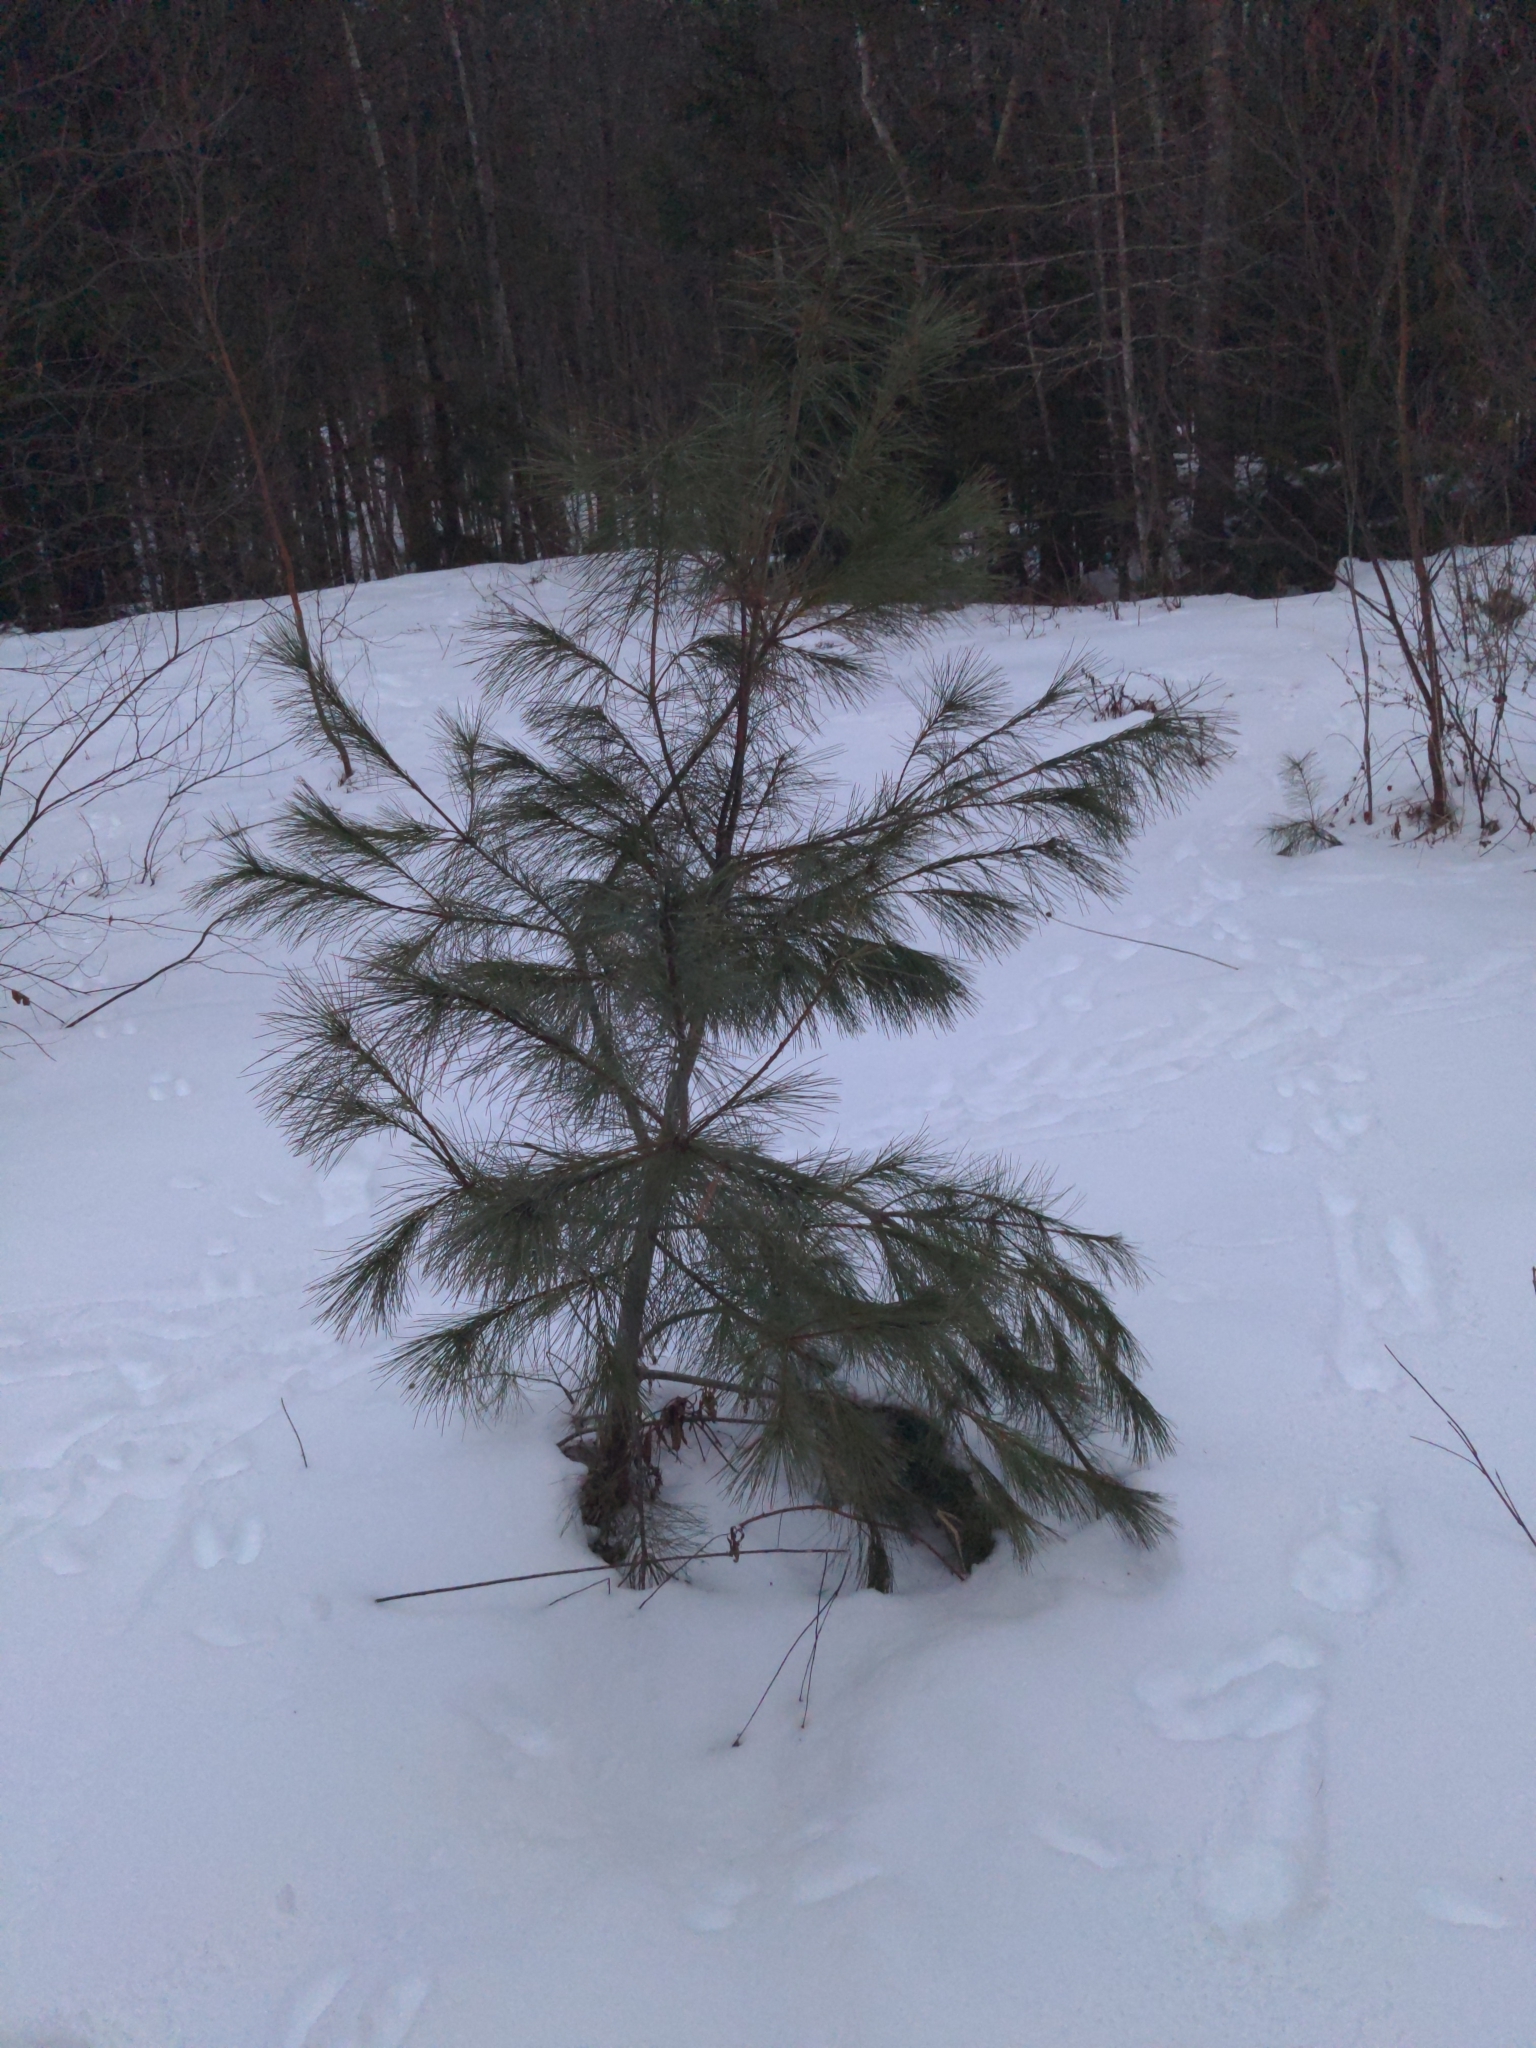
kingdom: Plantae
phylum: Tracheophyta
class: Pinopsida
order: Pinales
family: Pinaceae
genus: Pinus
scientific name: Pinus strobus
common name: Weymouth pine
